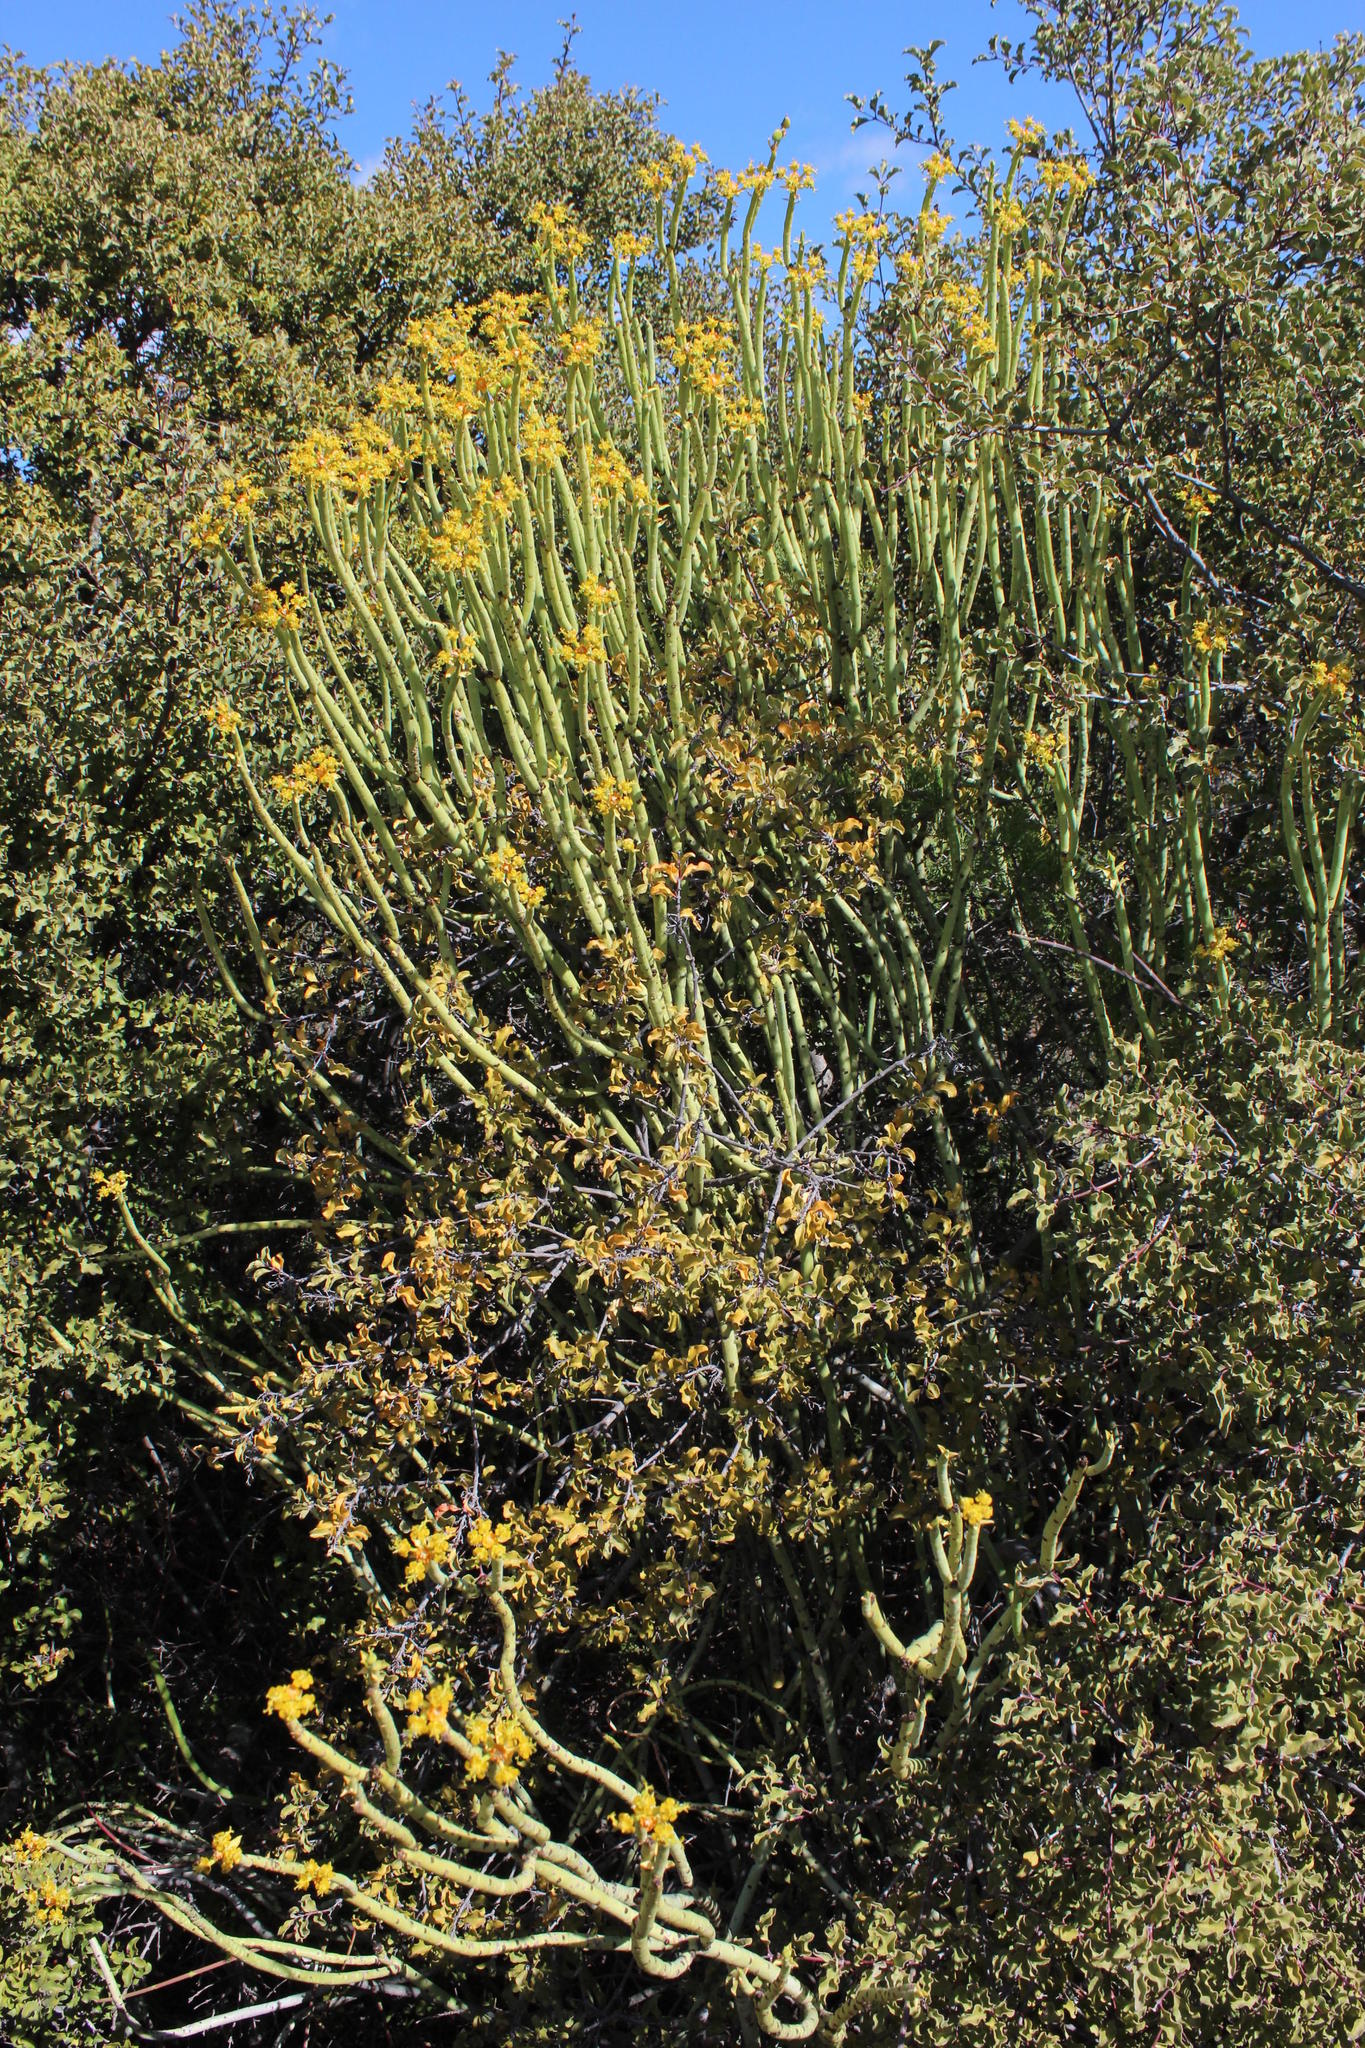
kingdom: Plantae
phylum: Tracheophyta
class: Magnoliopsida
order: Malpighiales
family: Euphorbiaceae
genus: Euphorbia
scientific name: Euphorbia mauritanica
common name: Jackal's-food
